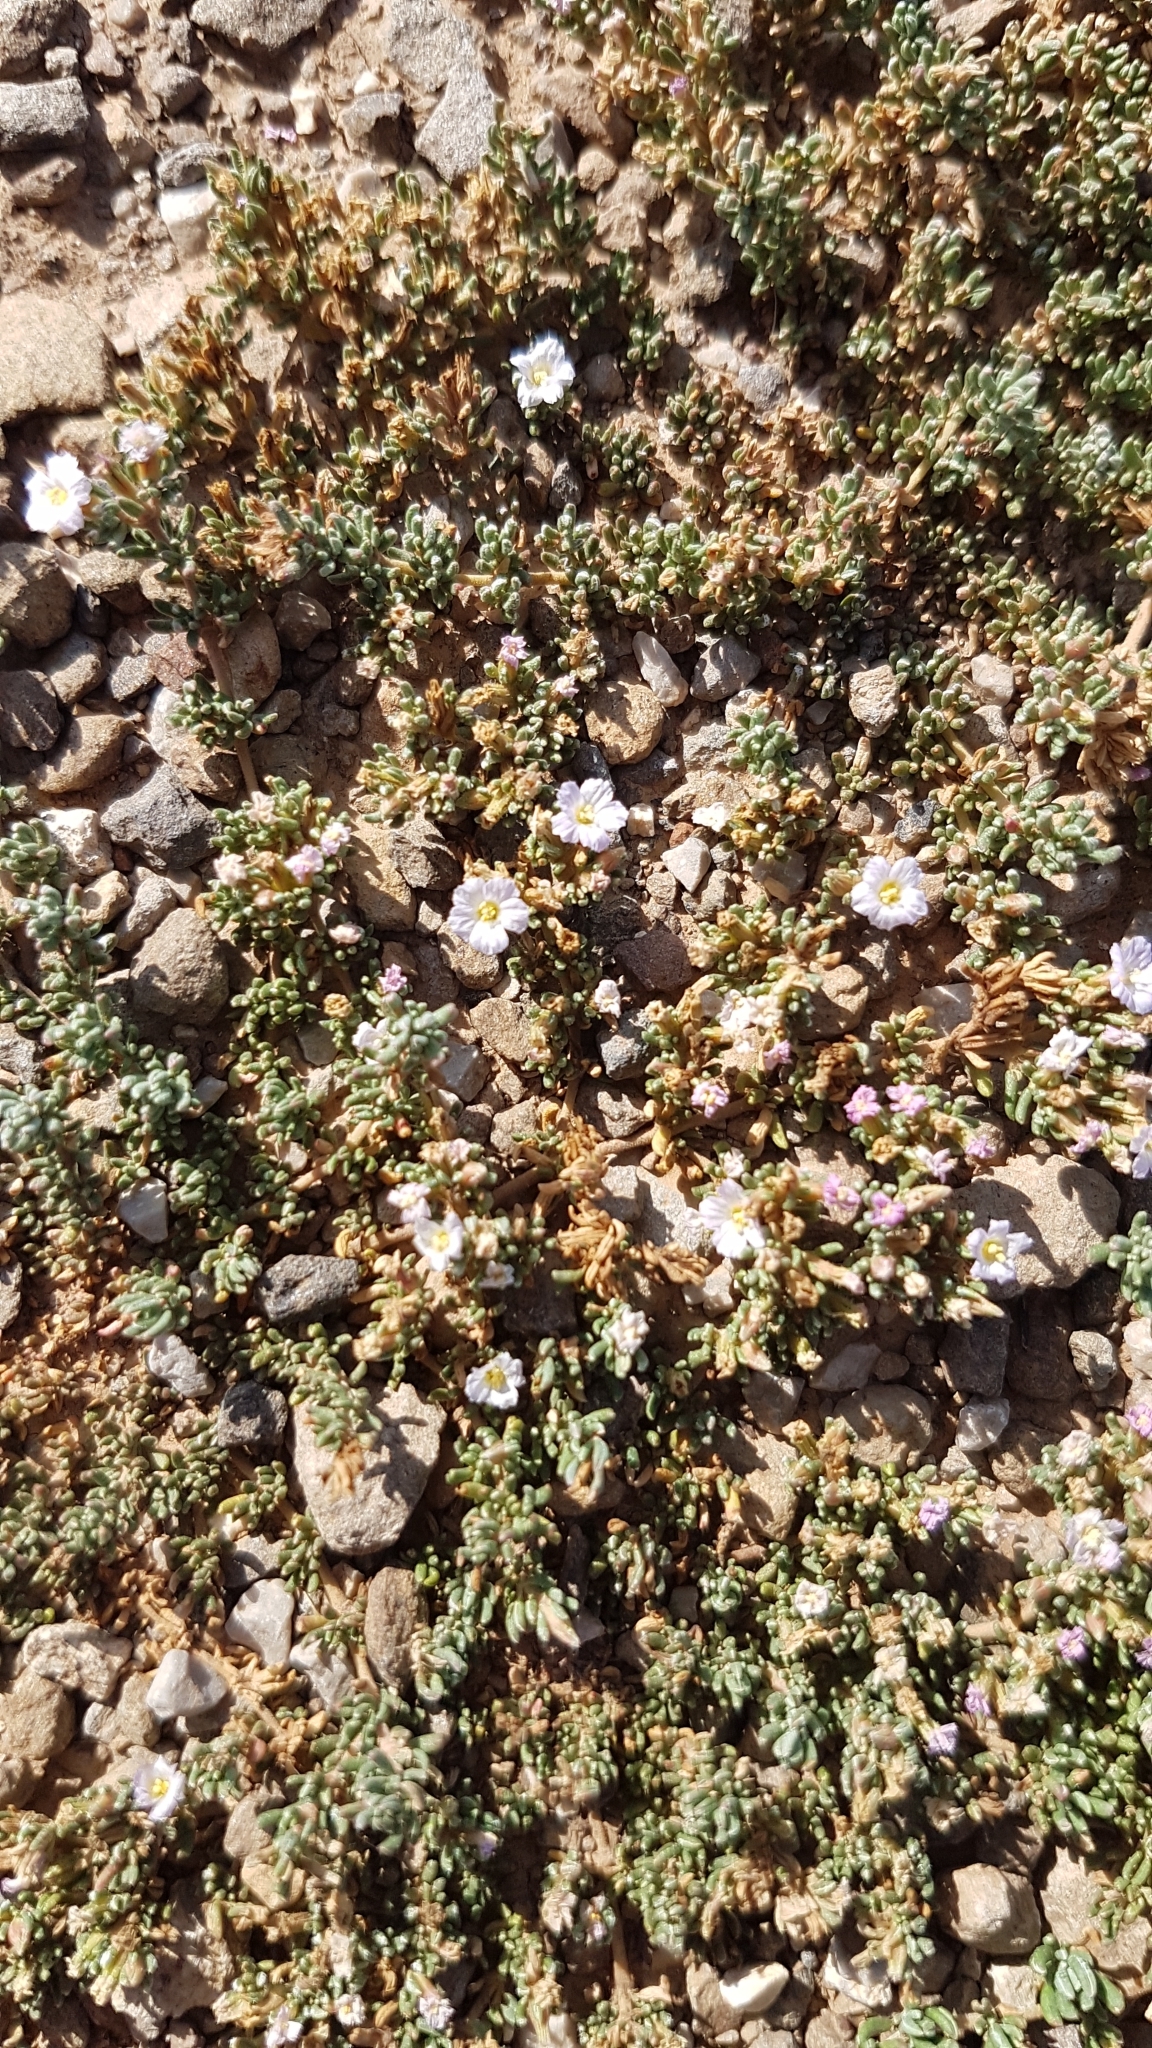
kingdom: Plantae
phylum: Tracheophyta
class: Magnoliopsida
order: Caryophyllales
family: Frankeniaceae
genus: Frankenia
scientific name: Frankenia hirsuta
